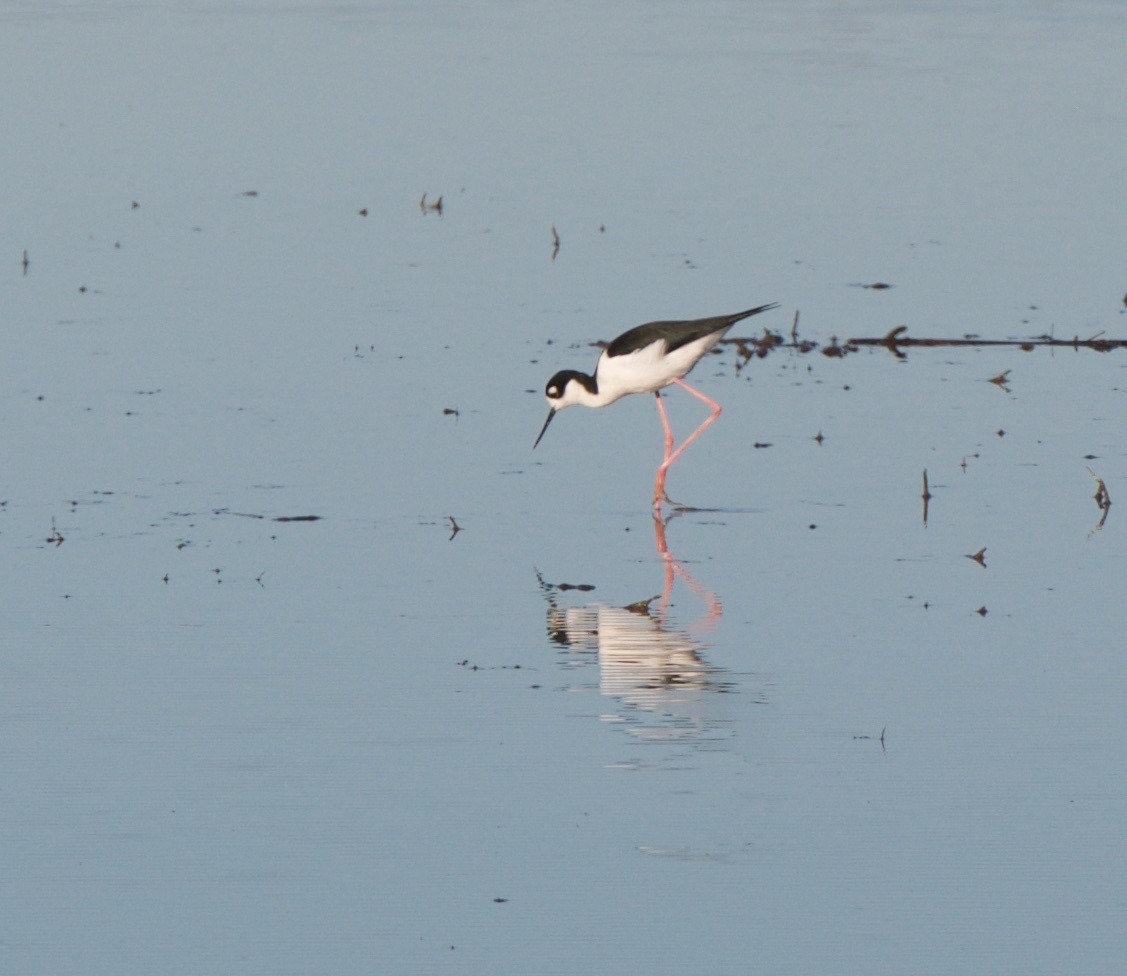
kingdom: Animalia
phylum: Chordata
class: Aves
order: Charadriiformes
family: Recurvirostridae
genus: Himantopus
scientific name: Himantopus mexicanus
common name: Black-necked stilt
